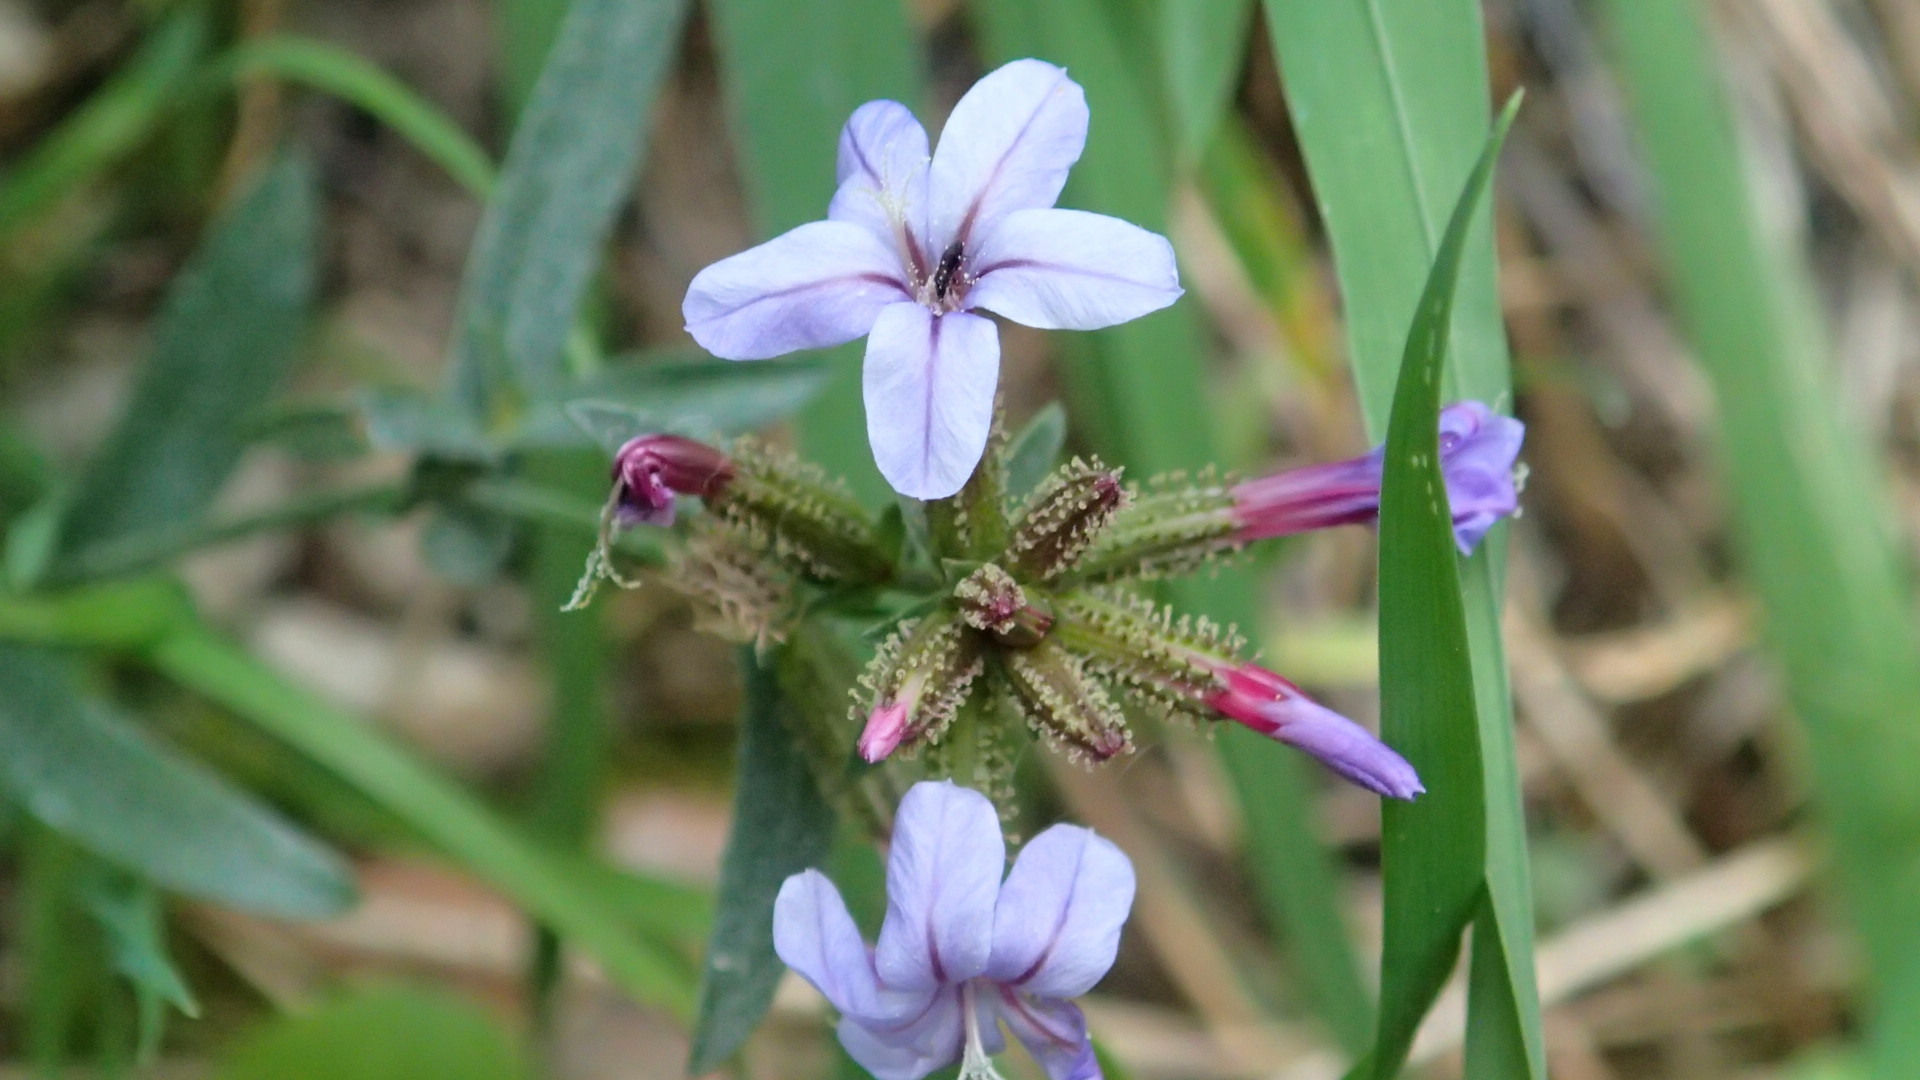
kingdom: Plantae
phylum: Tracheophyta
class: Magnoliopsida
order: Caryophyllales
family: Plumbaginaceae
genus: Plumbago
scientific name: Plumbago europaea
